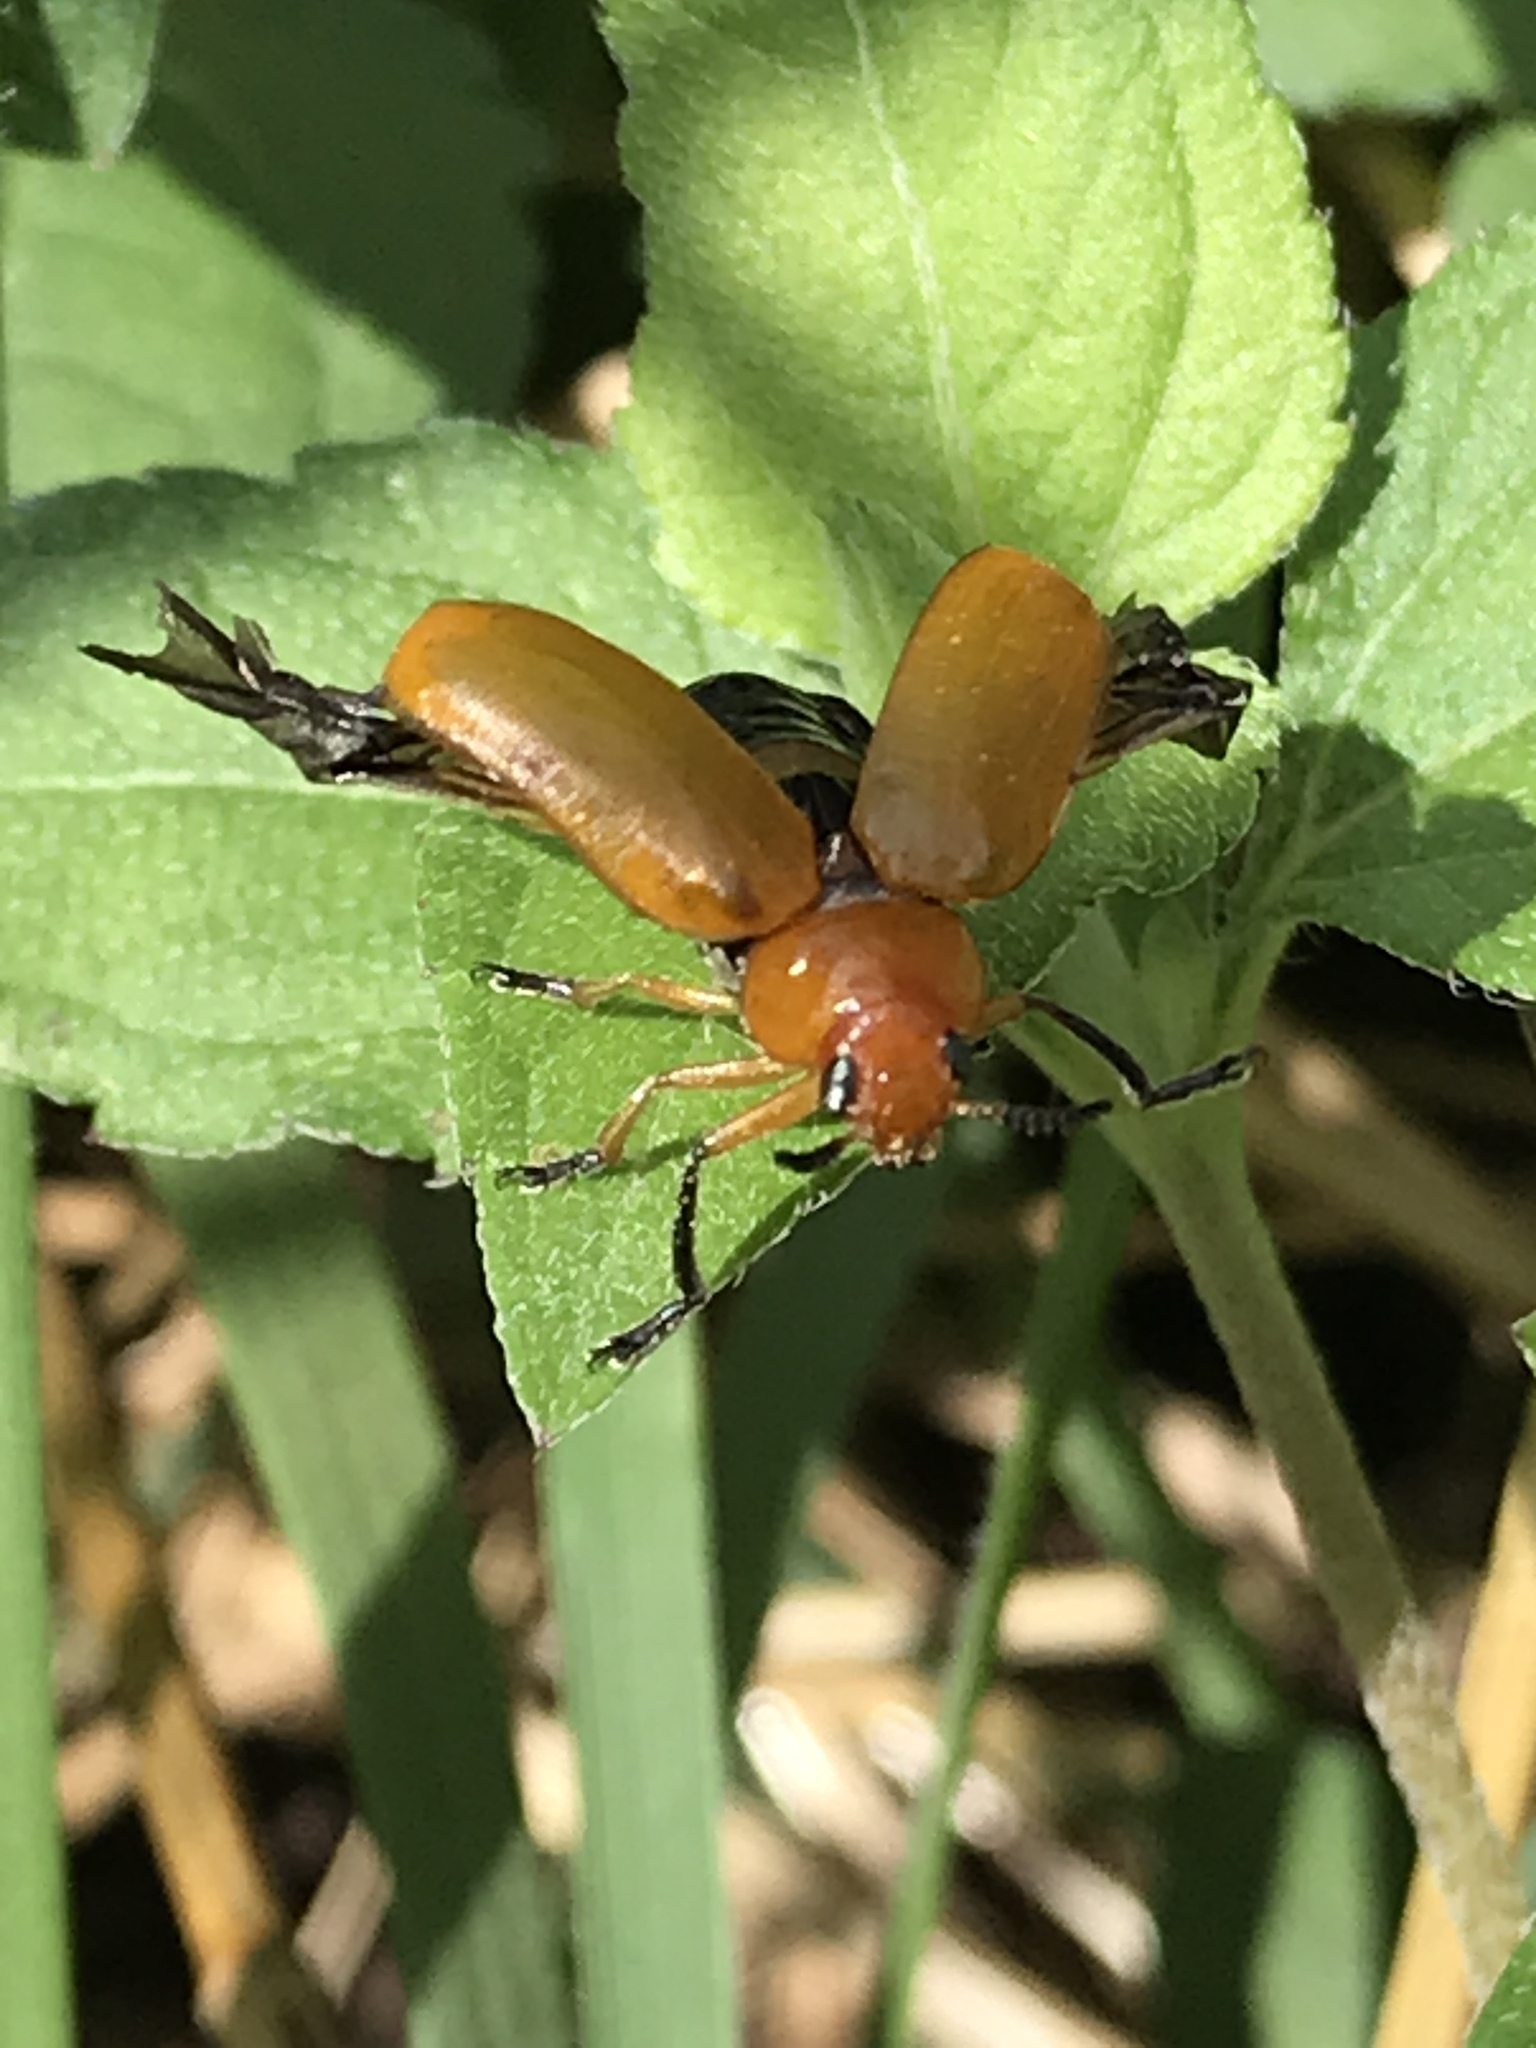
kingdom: Animalia
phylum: Arthropoda
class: Insecta
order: Coleoptera
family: Chrysomelidae
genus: Anomoea
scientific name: Anomoea flavokansiensis
